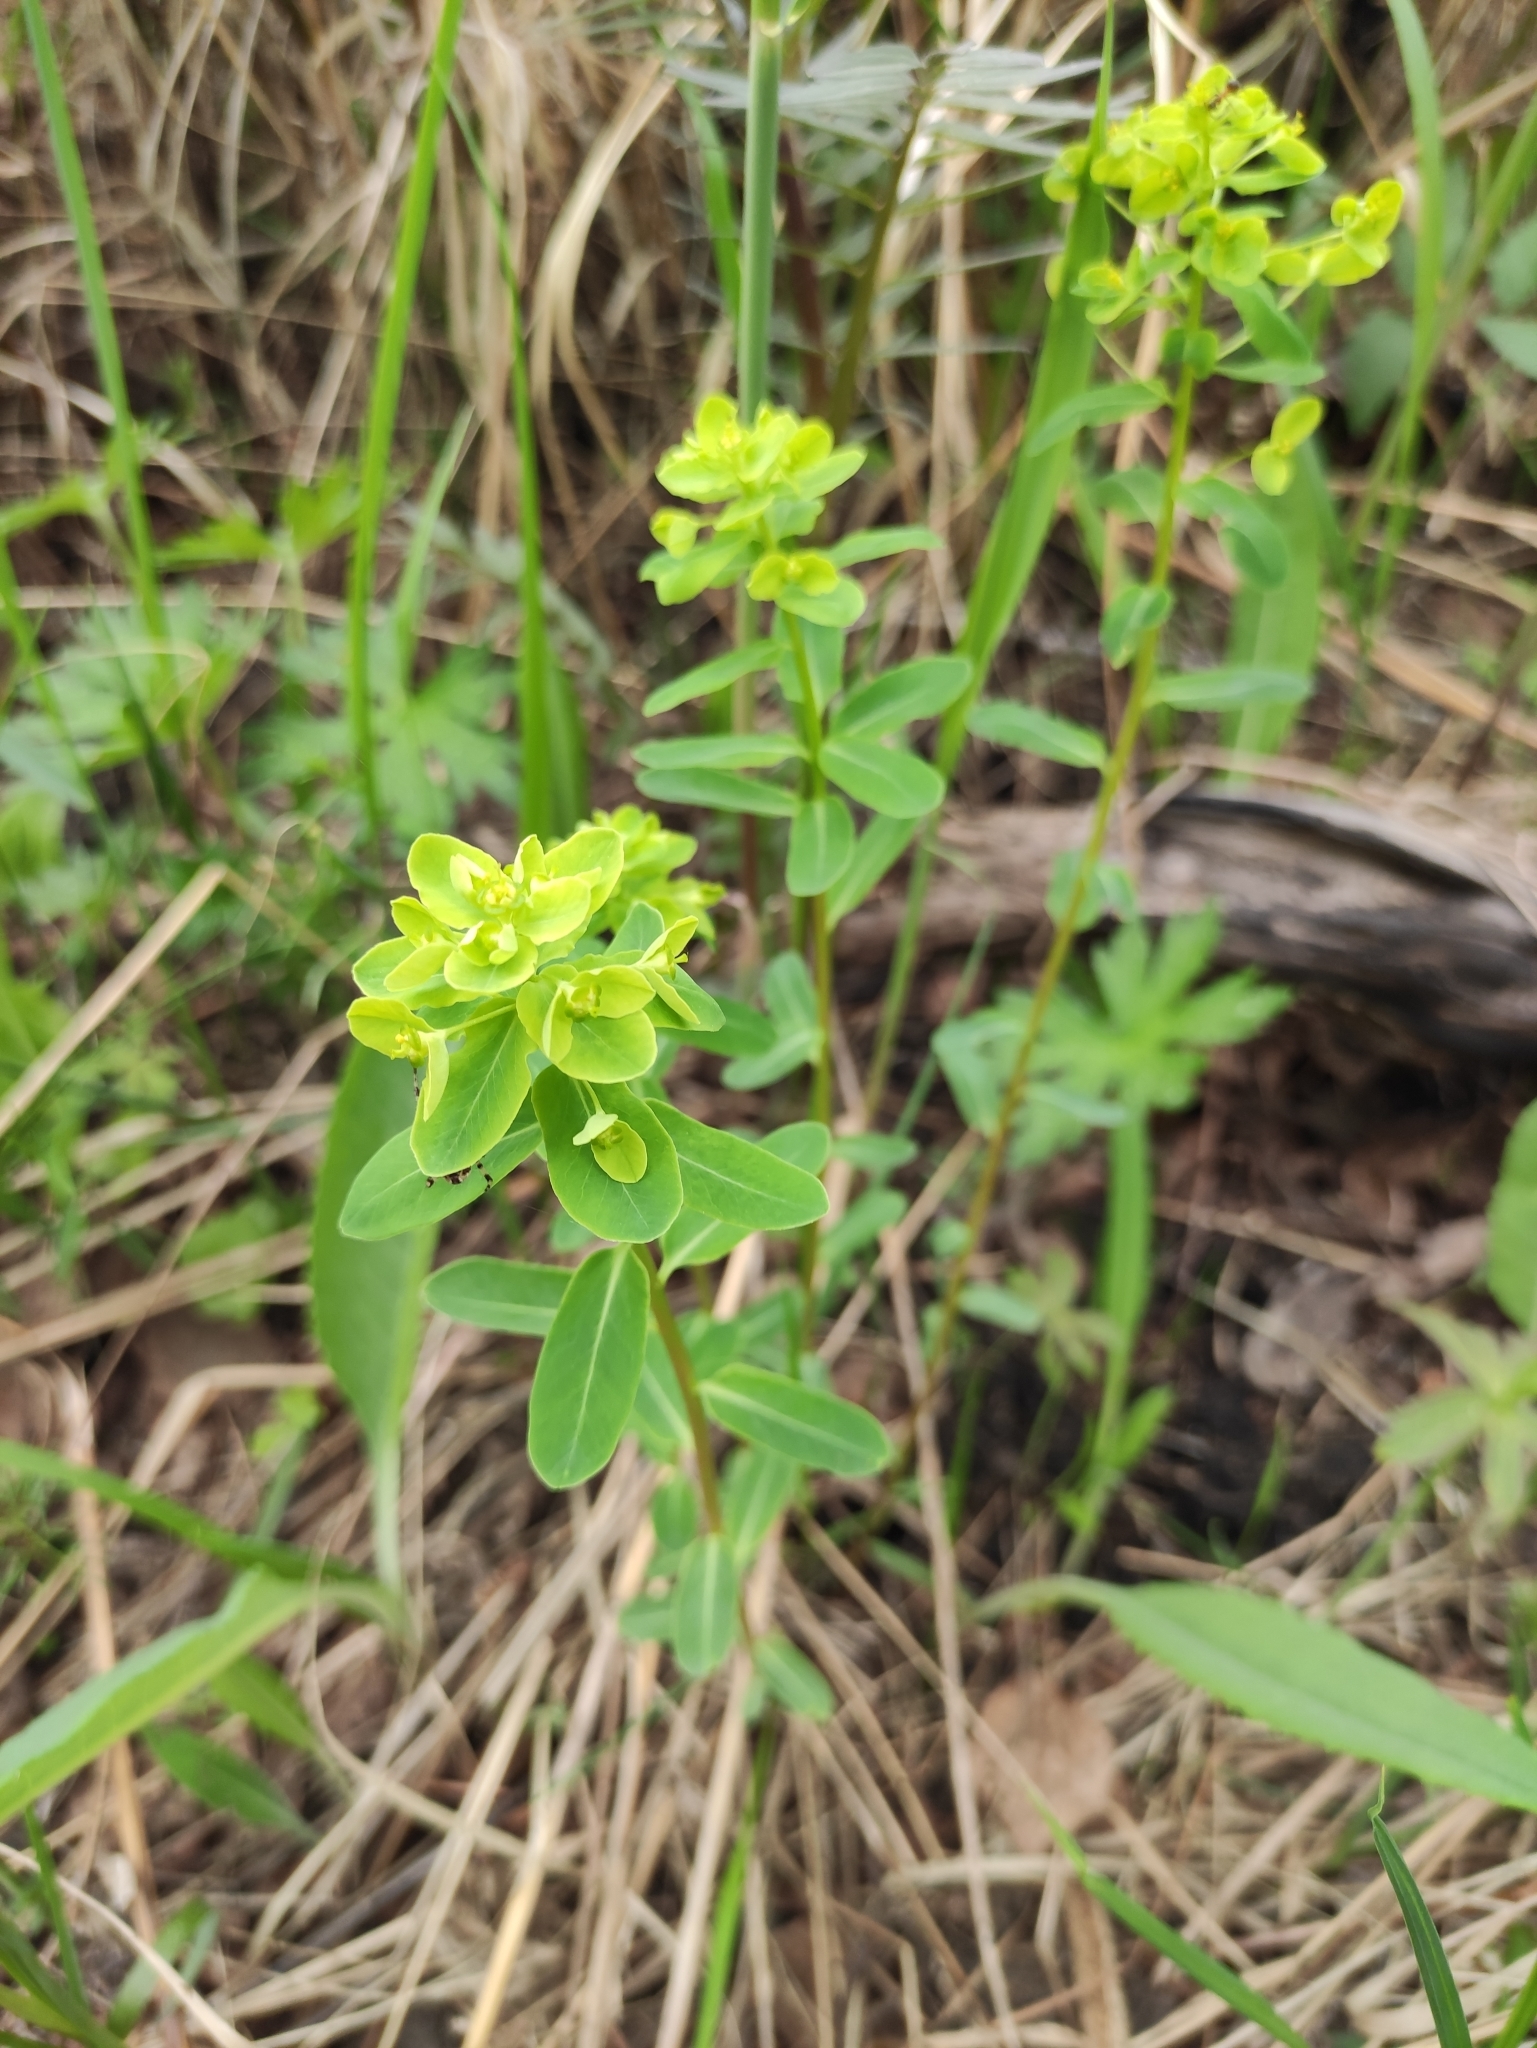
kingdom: Plantae
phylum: Tracheophyta
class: Magnoliopsida
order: Malpighiales
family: Euphorbiaceae
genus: Euphorbia
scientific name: Euphorbia jenisseiensis
